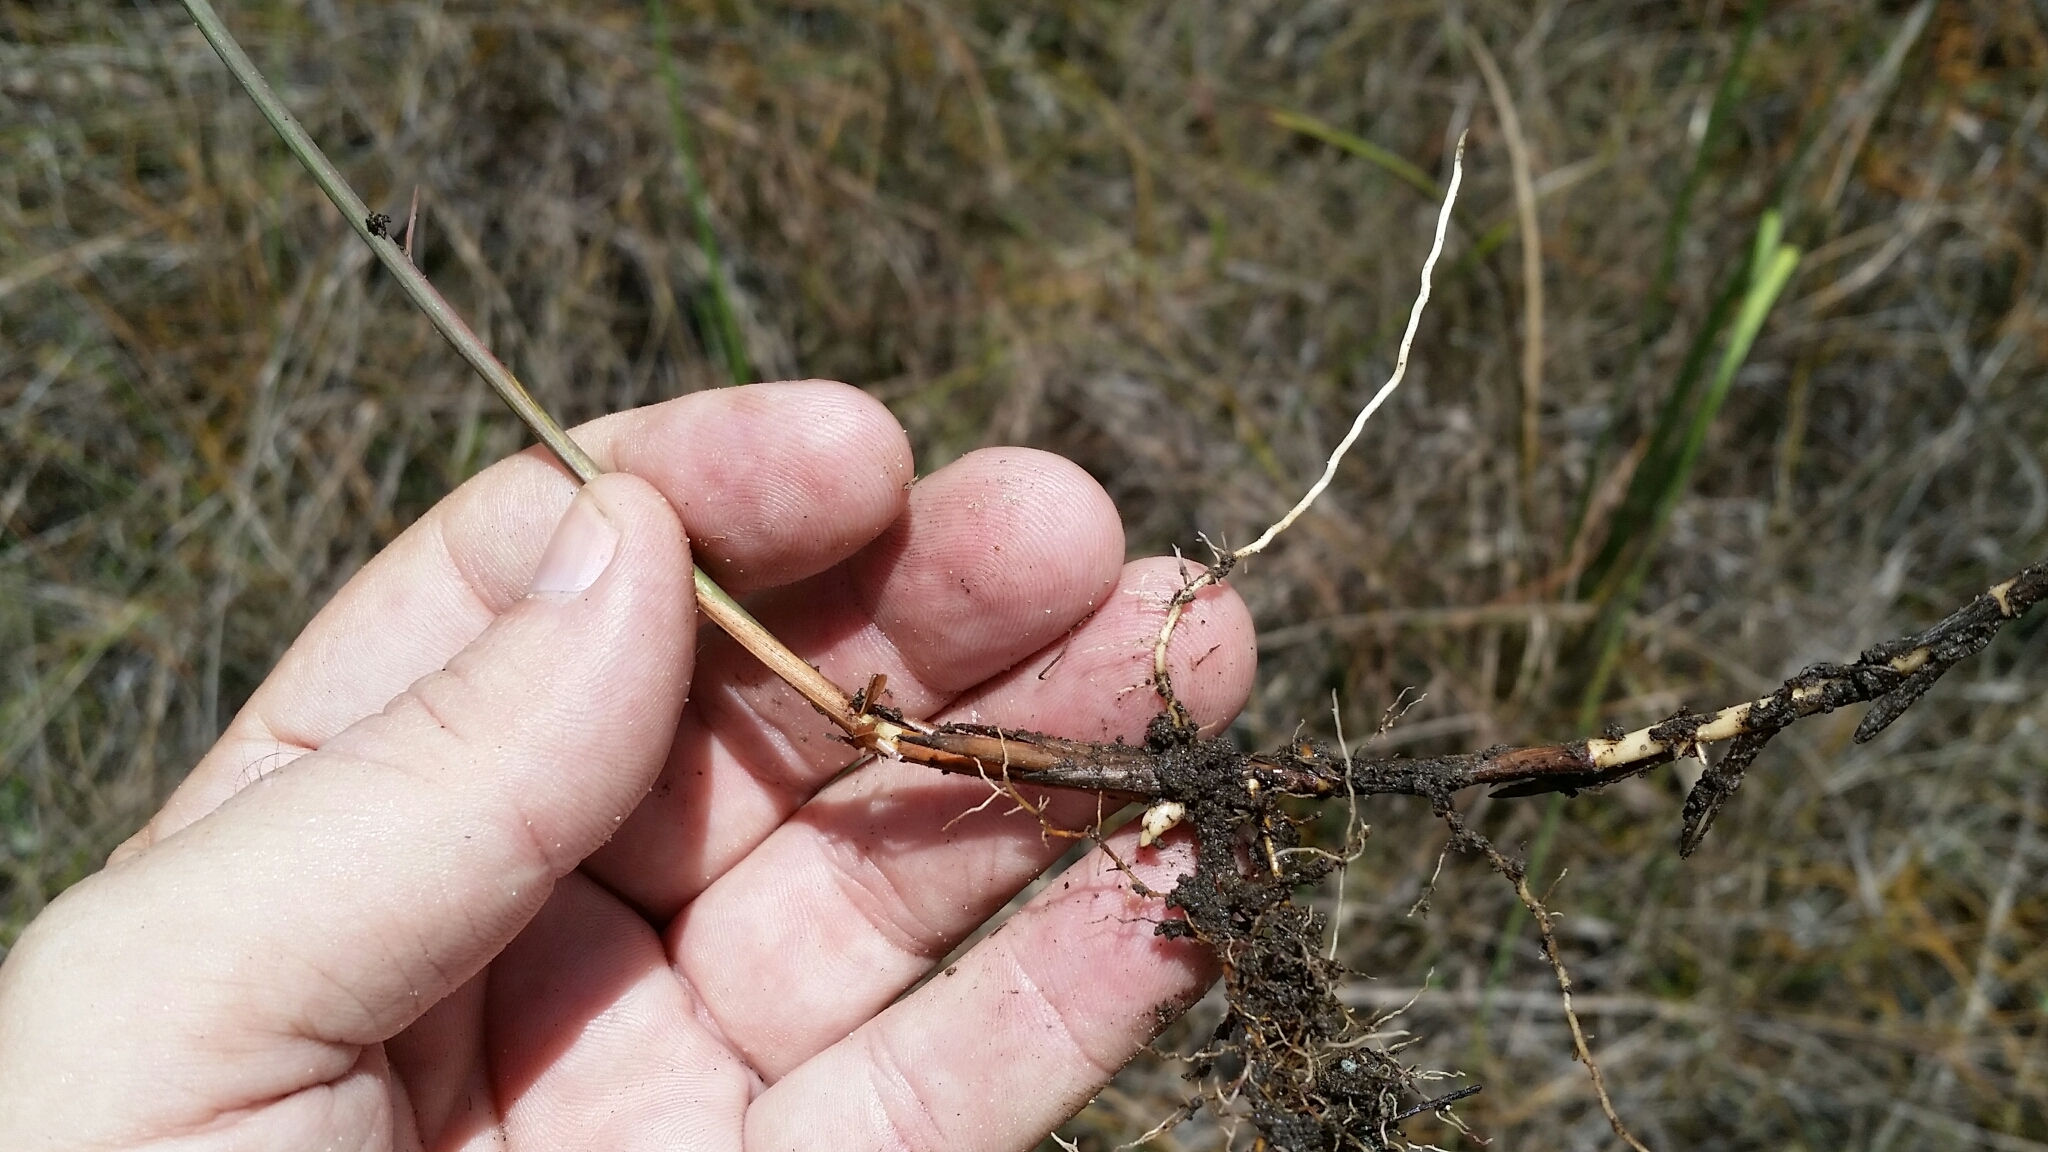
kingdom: Plantae
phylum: Tracheophyta
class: Liliopsida
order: Poales
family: Poaceae
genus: Schizachyrium
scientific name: Schizachyrium rhizomatum
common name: Florida little bluestem
